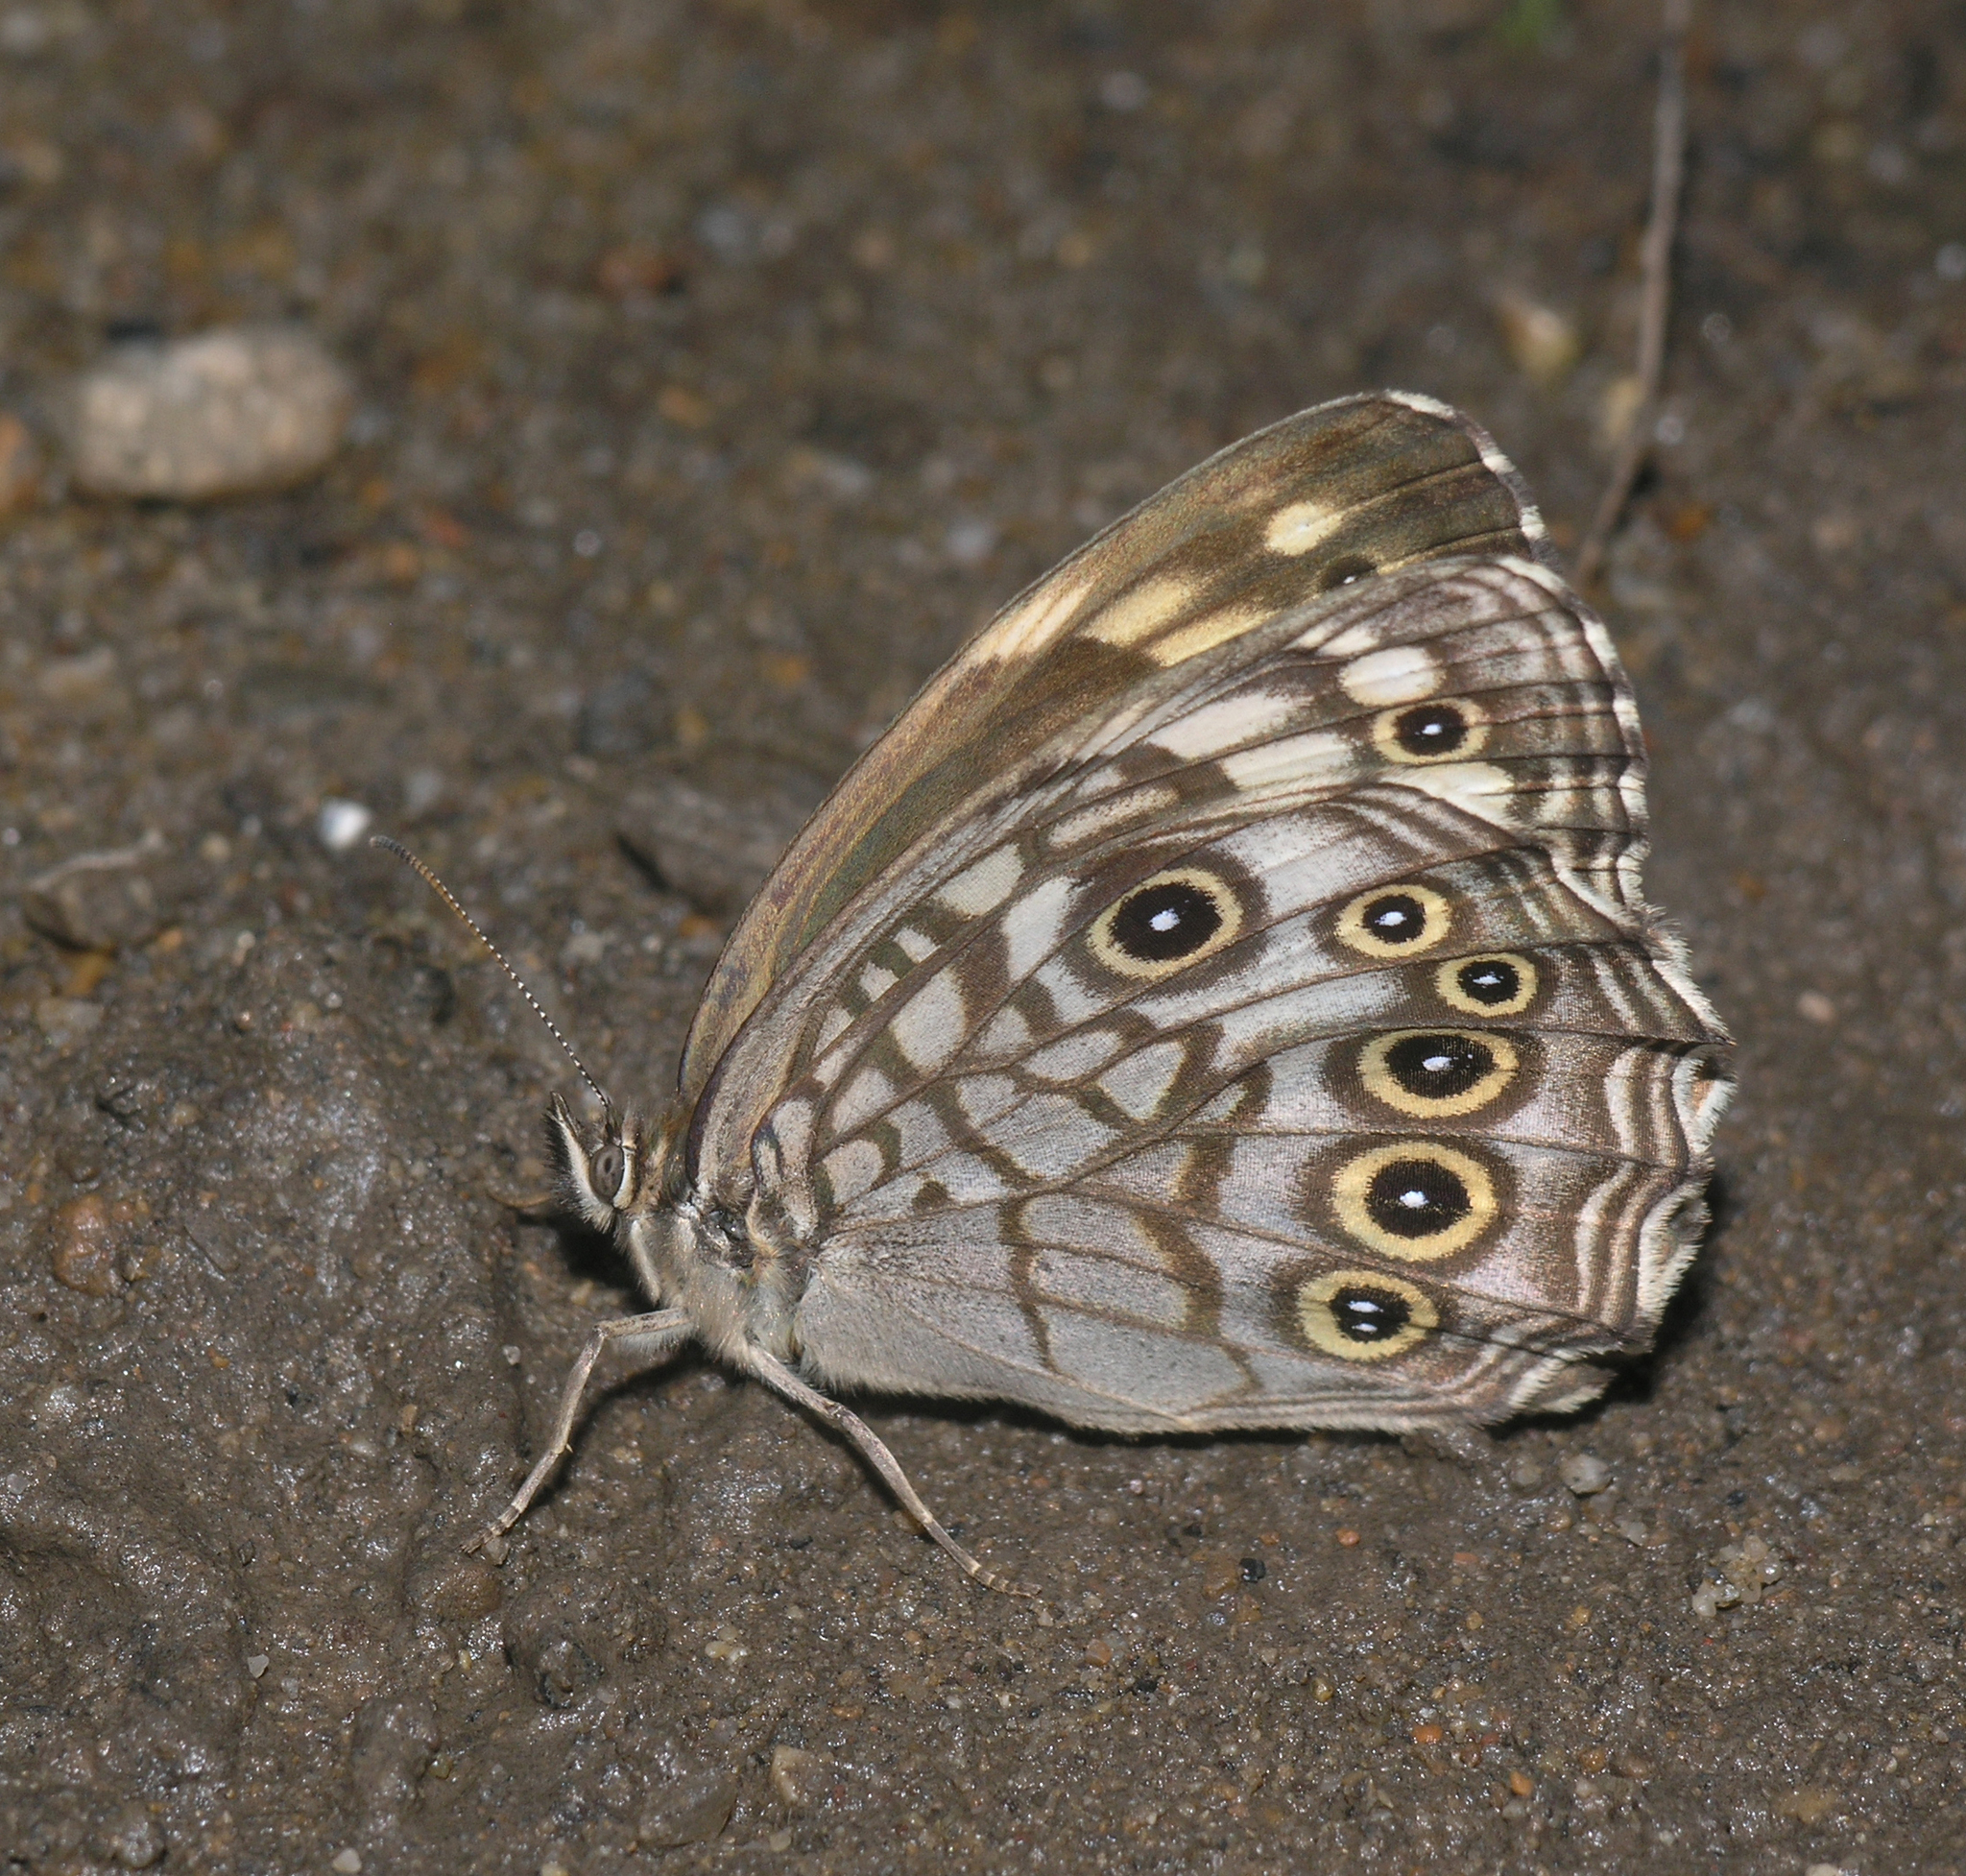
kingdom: Animalia
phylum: Arthropoda
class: Insecta
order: Lepidoptera
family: Nymphalidae
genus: Kirinia
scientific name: Kirinia epimenides
